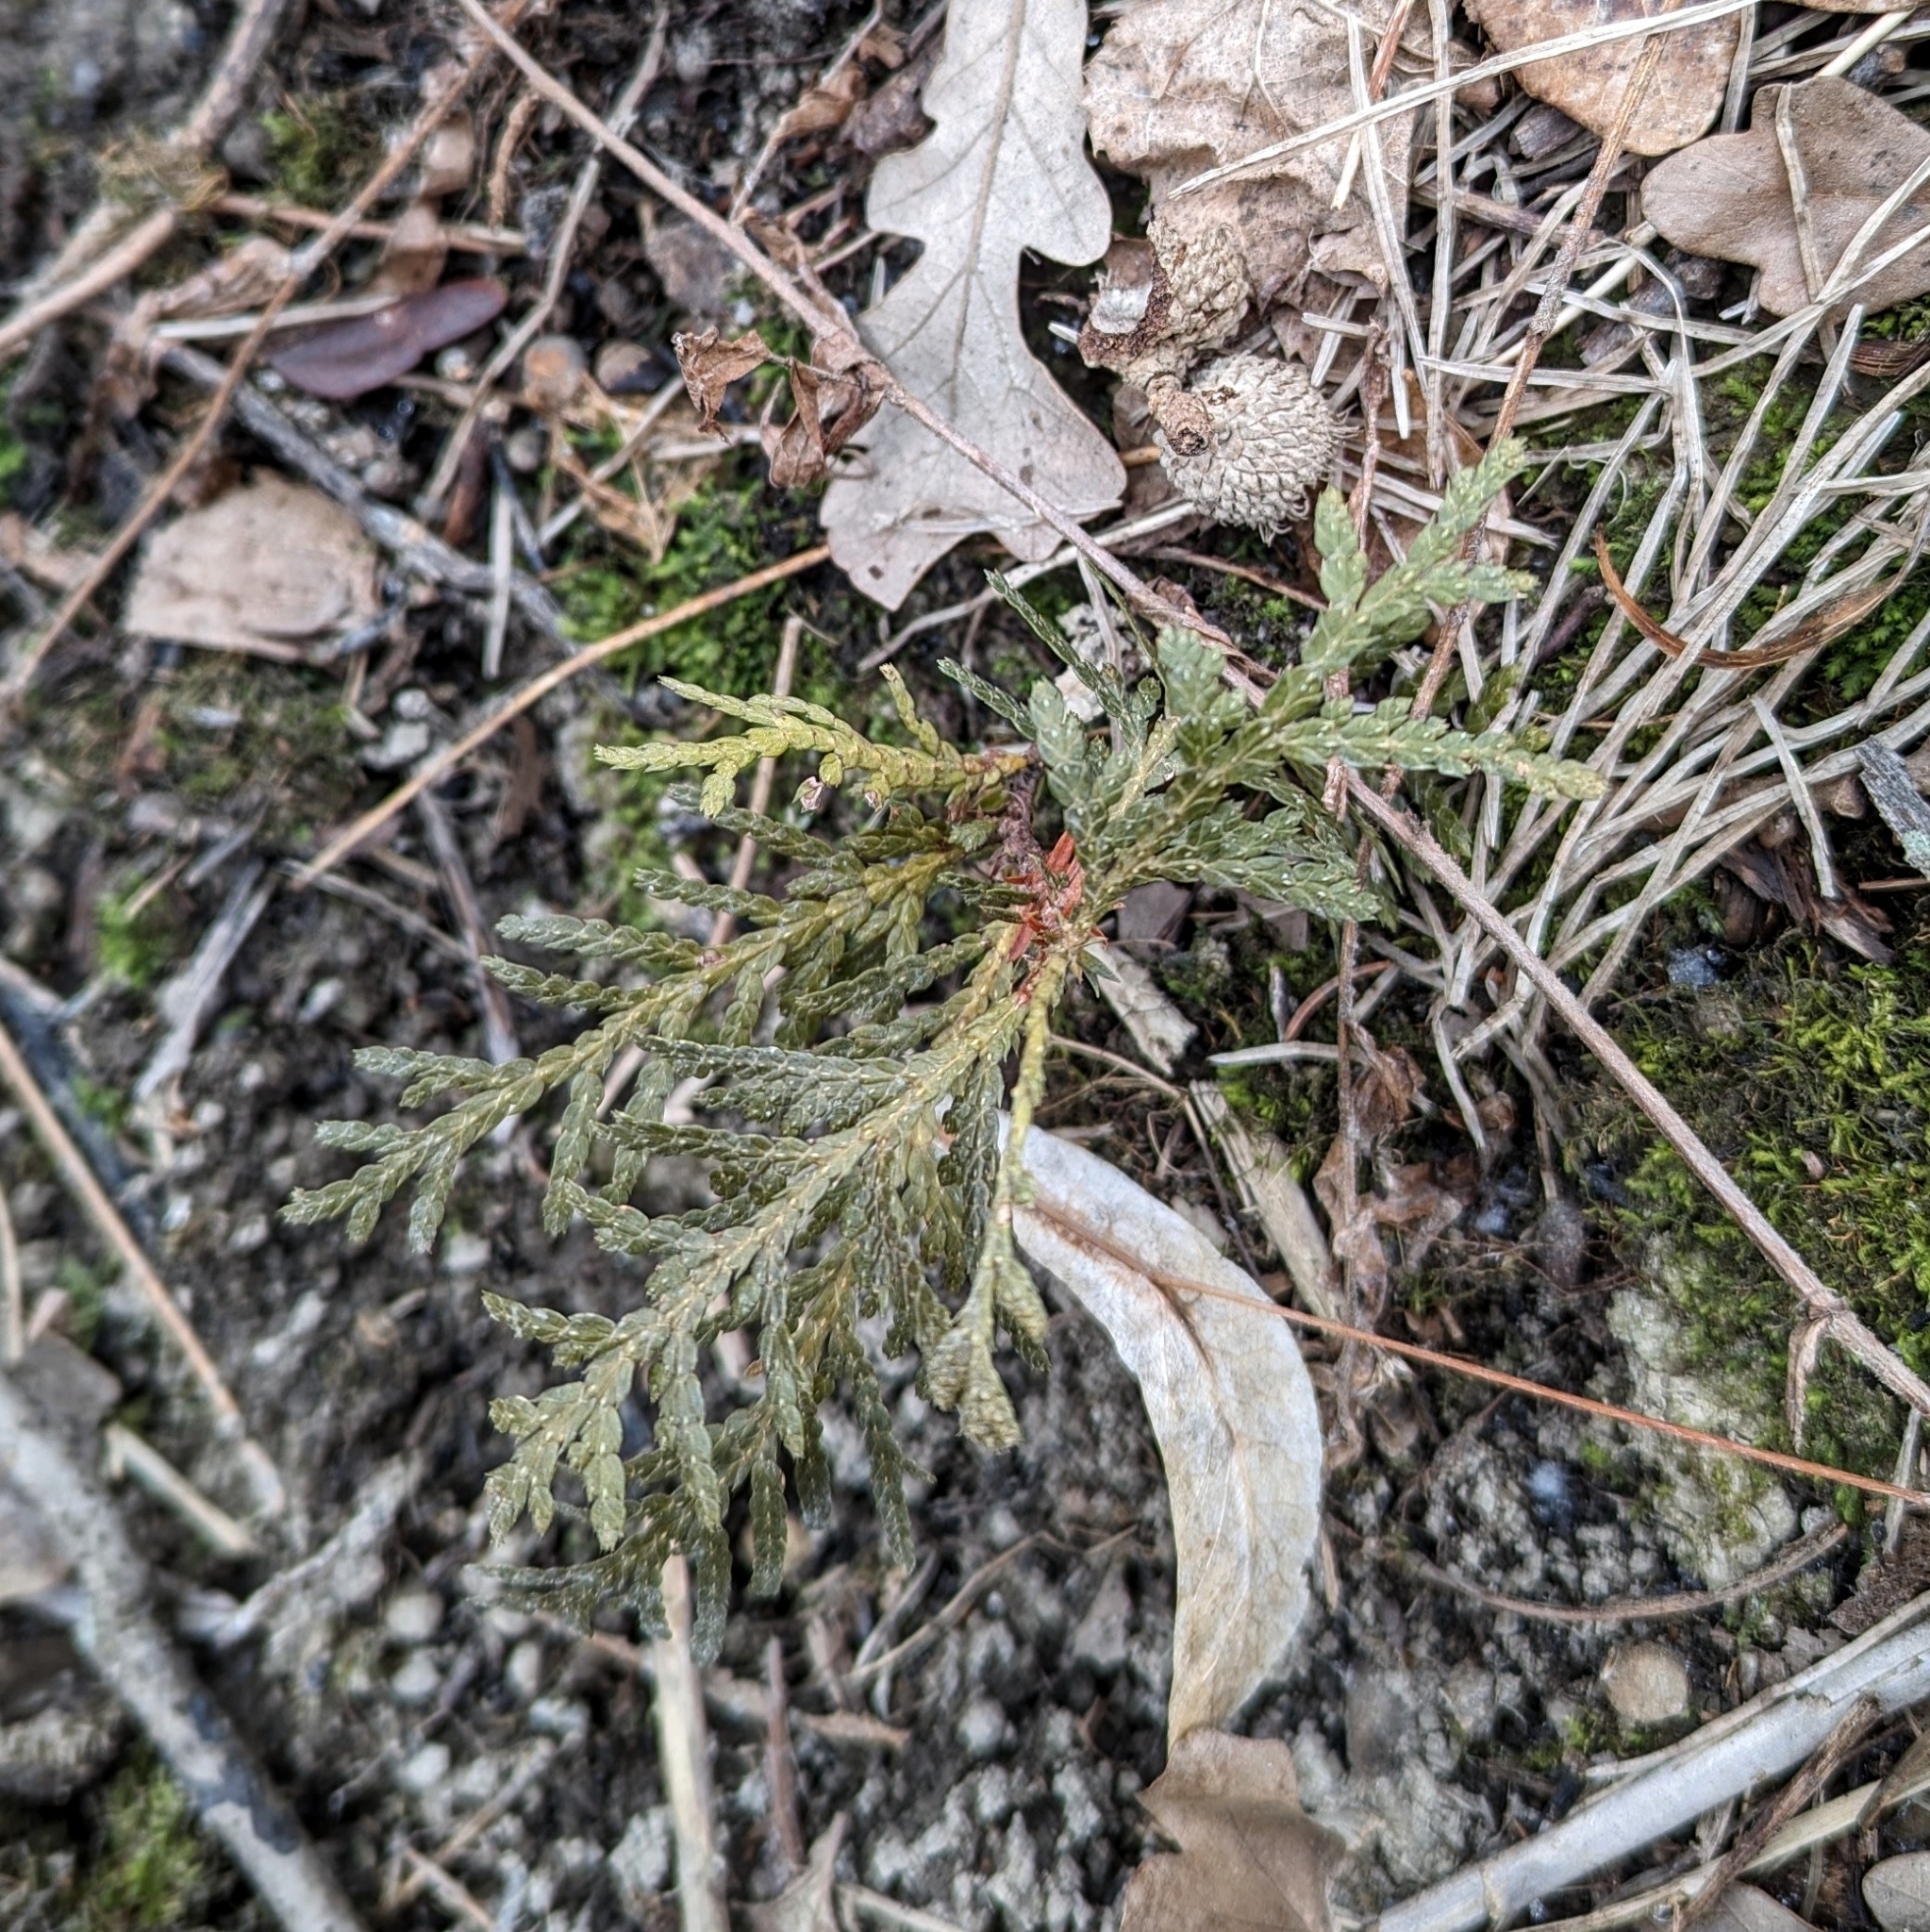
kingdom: Plantae
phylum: Tracheophyta
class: Pinopsida
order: Pinales
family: Cupressaceae
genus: Thuja
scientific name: Thuja occidentalis
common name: Northern white-cedar
